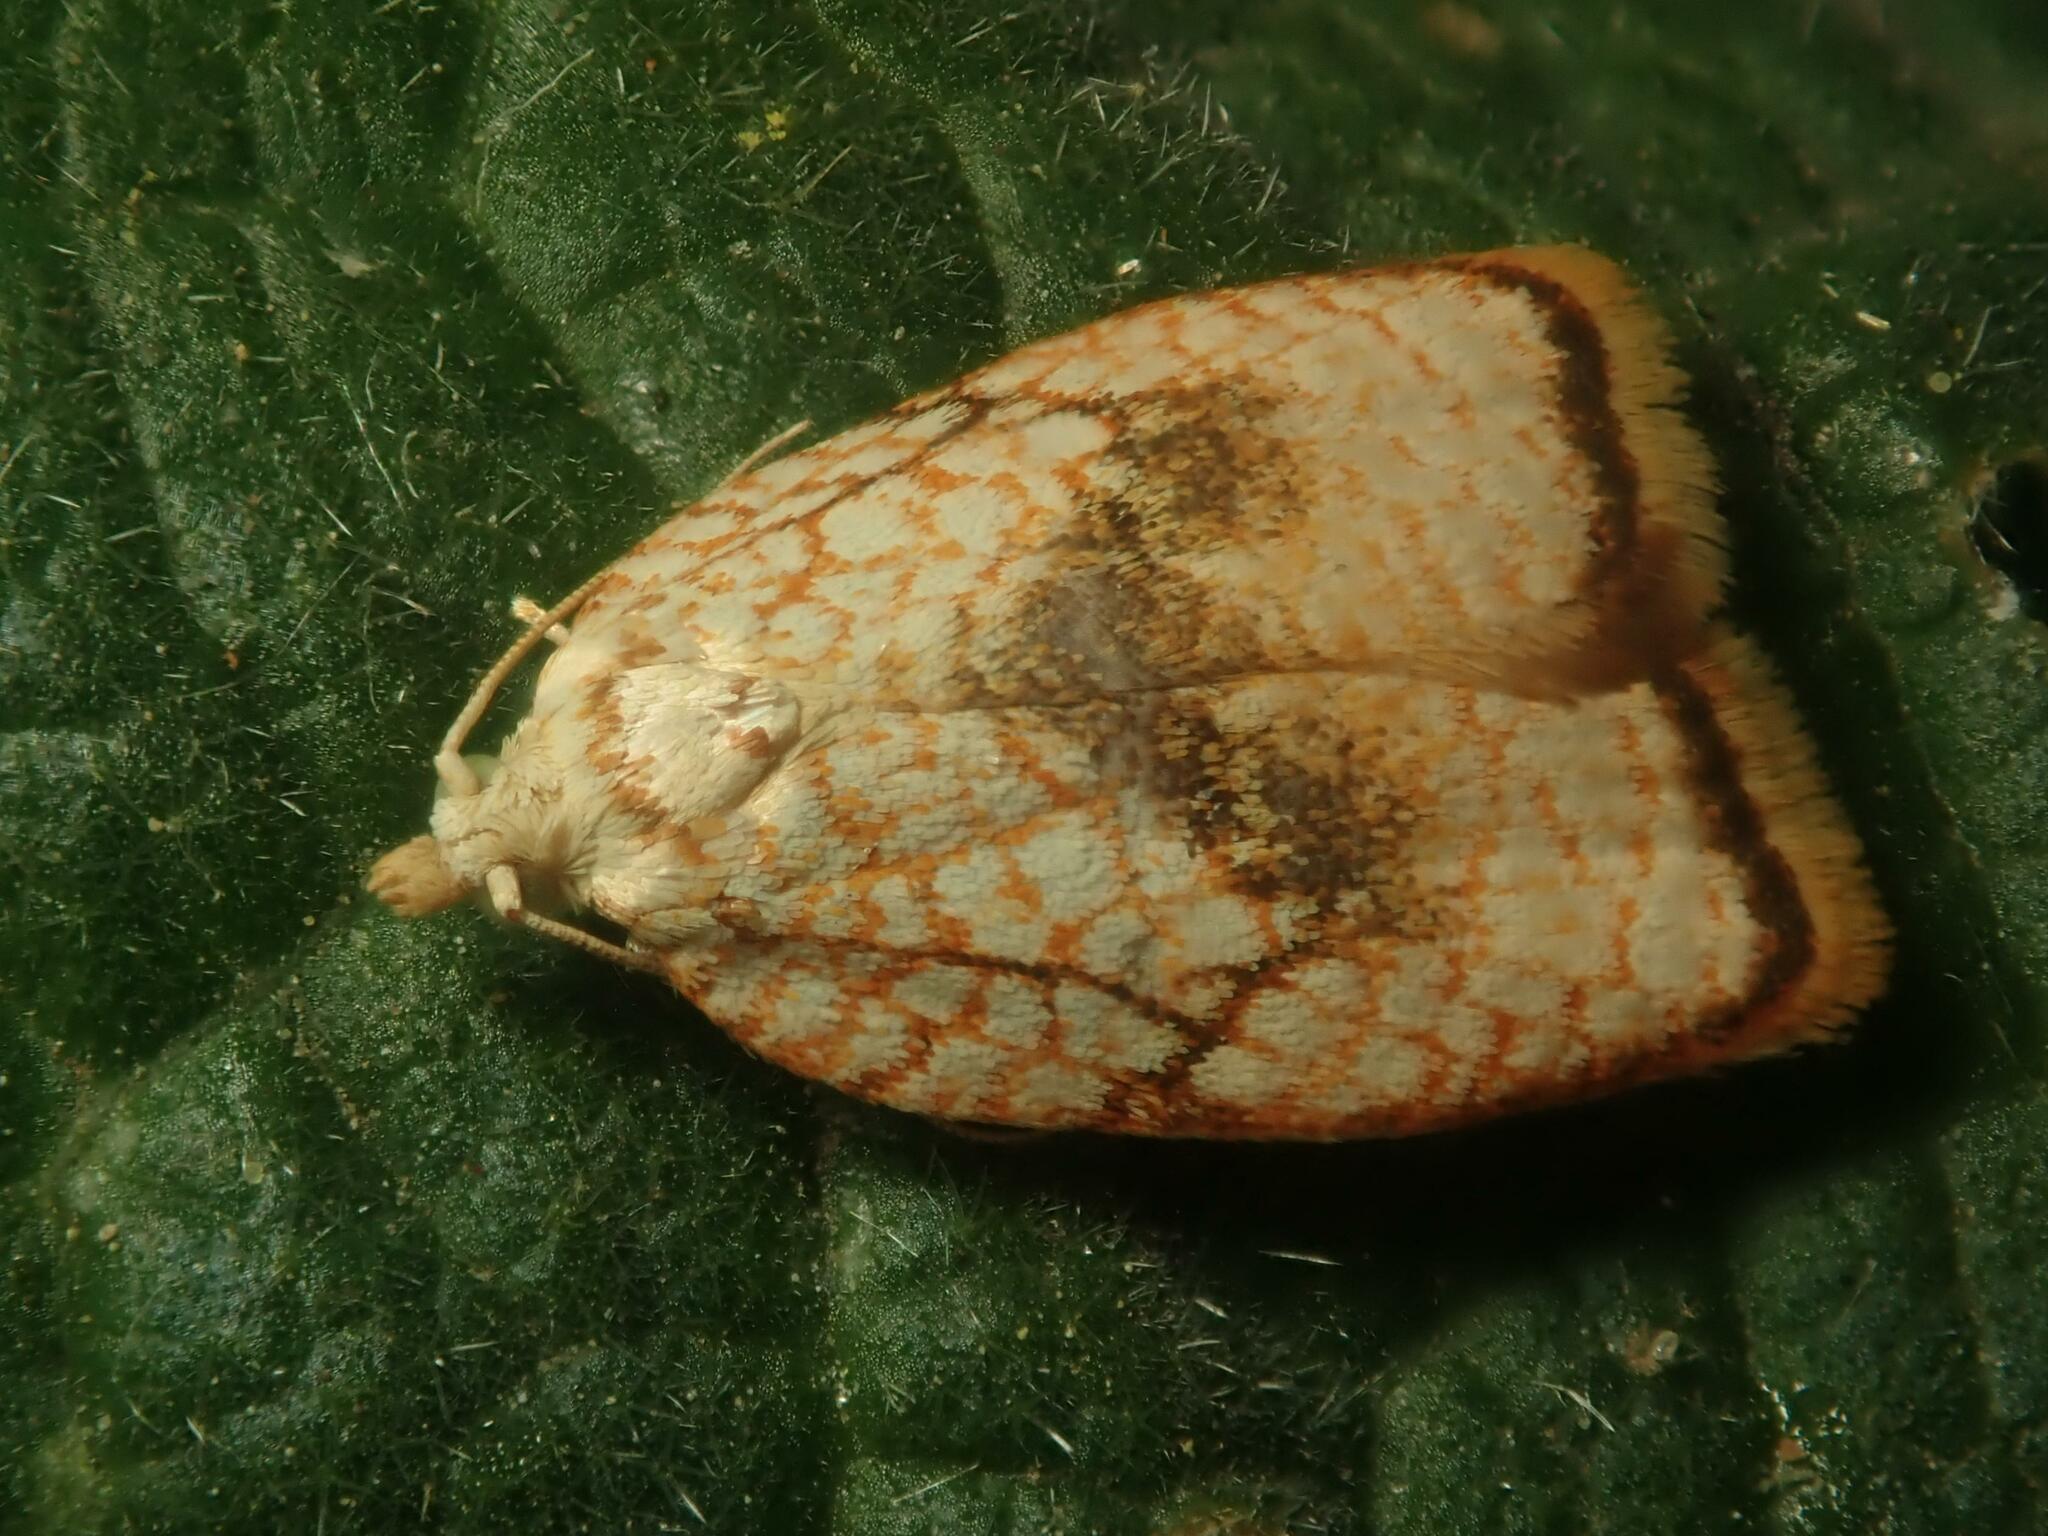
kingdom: Animalia
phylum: Arthropoda
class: Insecta
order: Lepidoptera
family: Tortricidae
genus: Acleris
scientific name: Acleris forsskaleana
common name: Maple button
